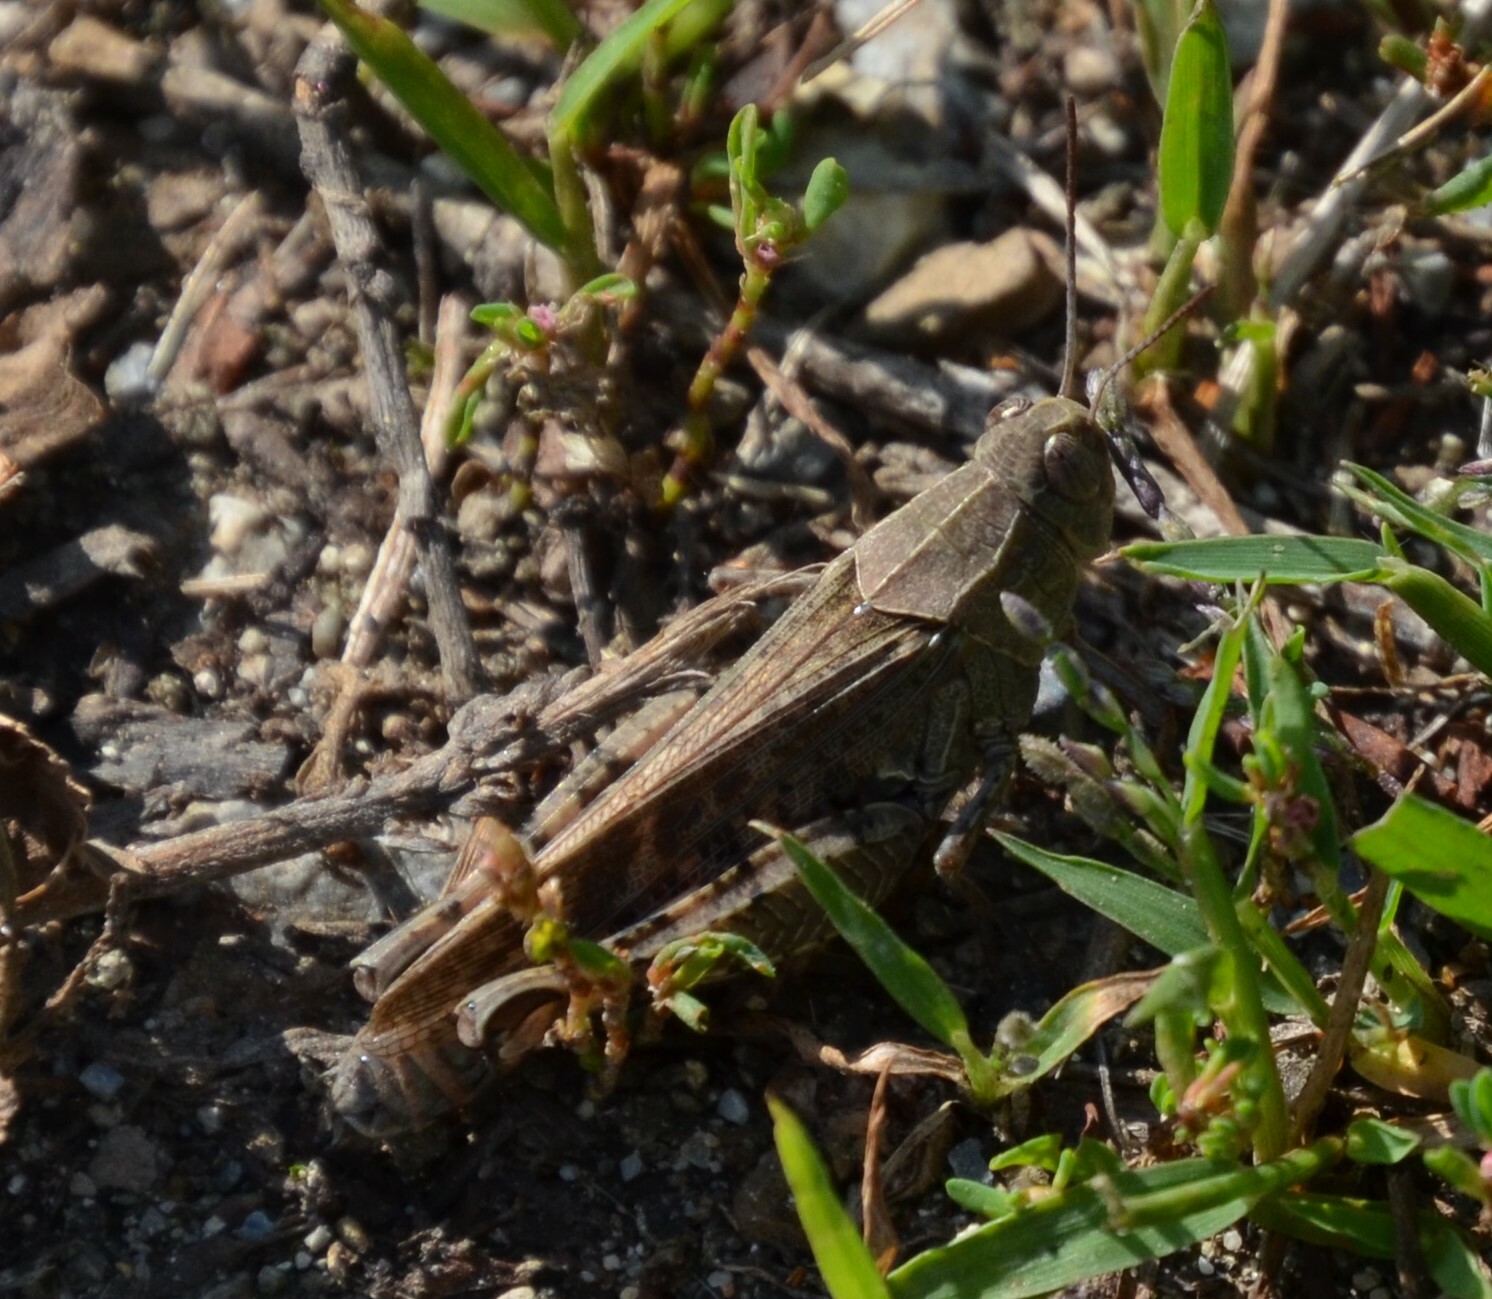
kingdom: Animalia
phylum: Arthropoda
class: Insecta
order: Orthoptera
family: Acrididae
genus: Calliptamus
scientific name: Calliptamus italicus
